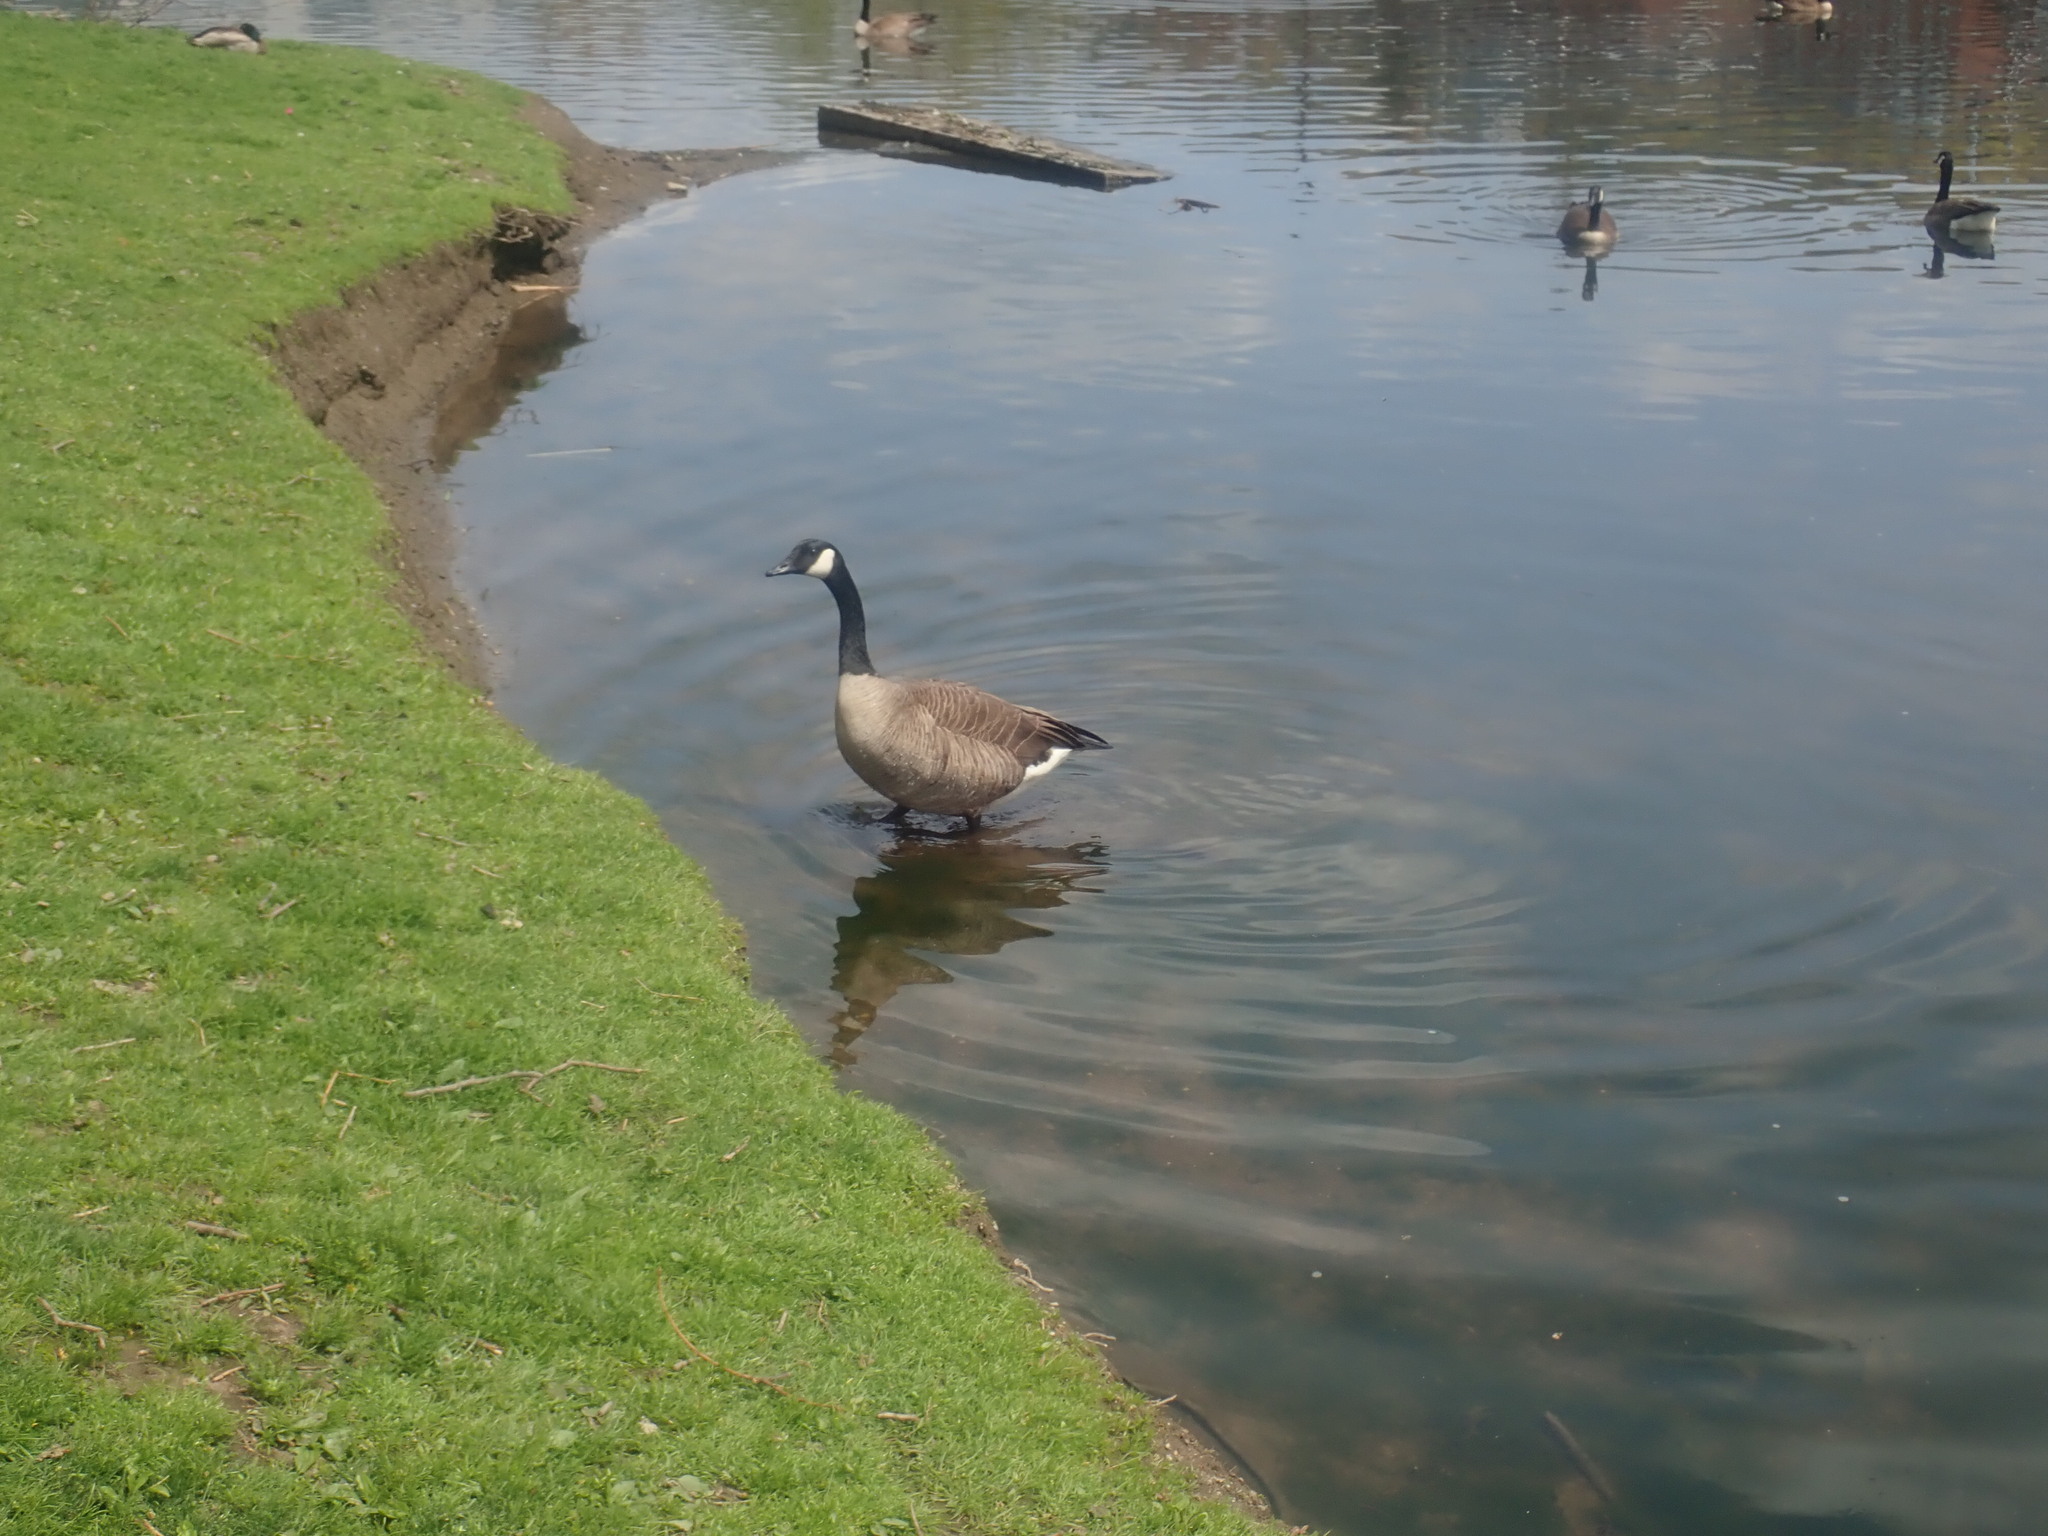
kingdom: Animalia
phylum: Chordata
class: Aves
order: Anseriformes
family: Anatidae
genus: Branta
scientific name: Branta canadensis
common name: Canada goose
